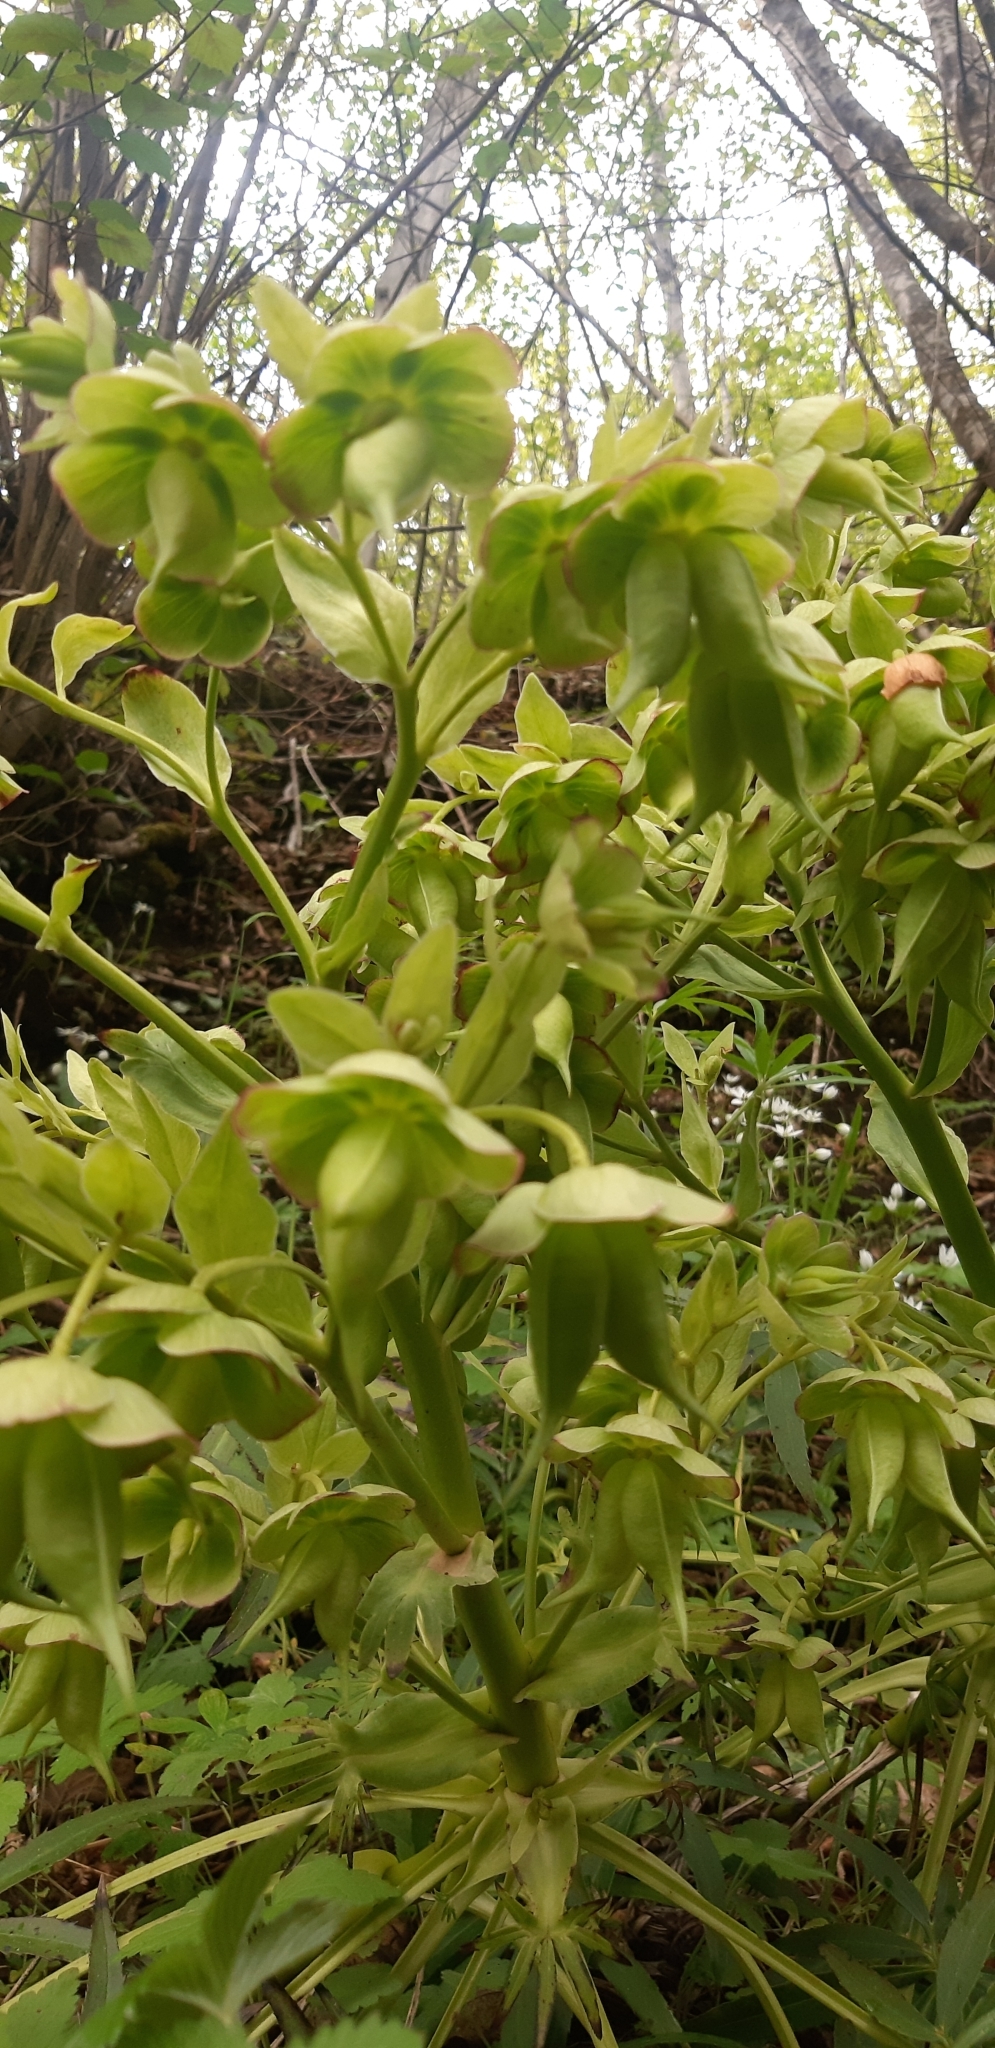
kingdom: Plantae
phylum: Tracheophyta
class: Magnoliopsida
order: Ranunculales
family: Ranunculaceae
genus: Helleborus
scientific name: Helleborus foetidus
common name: Stinking hellebore
